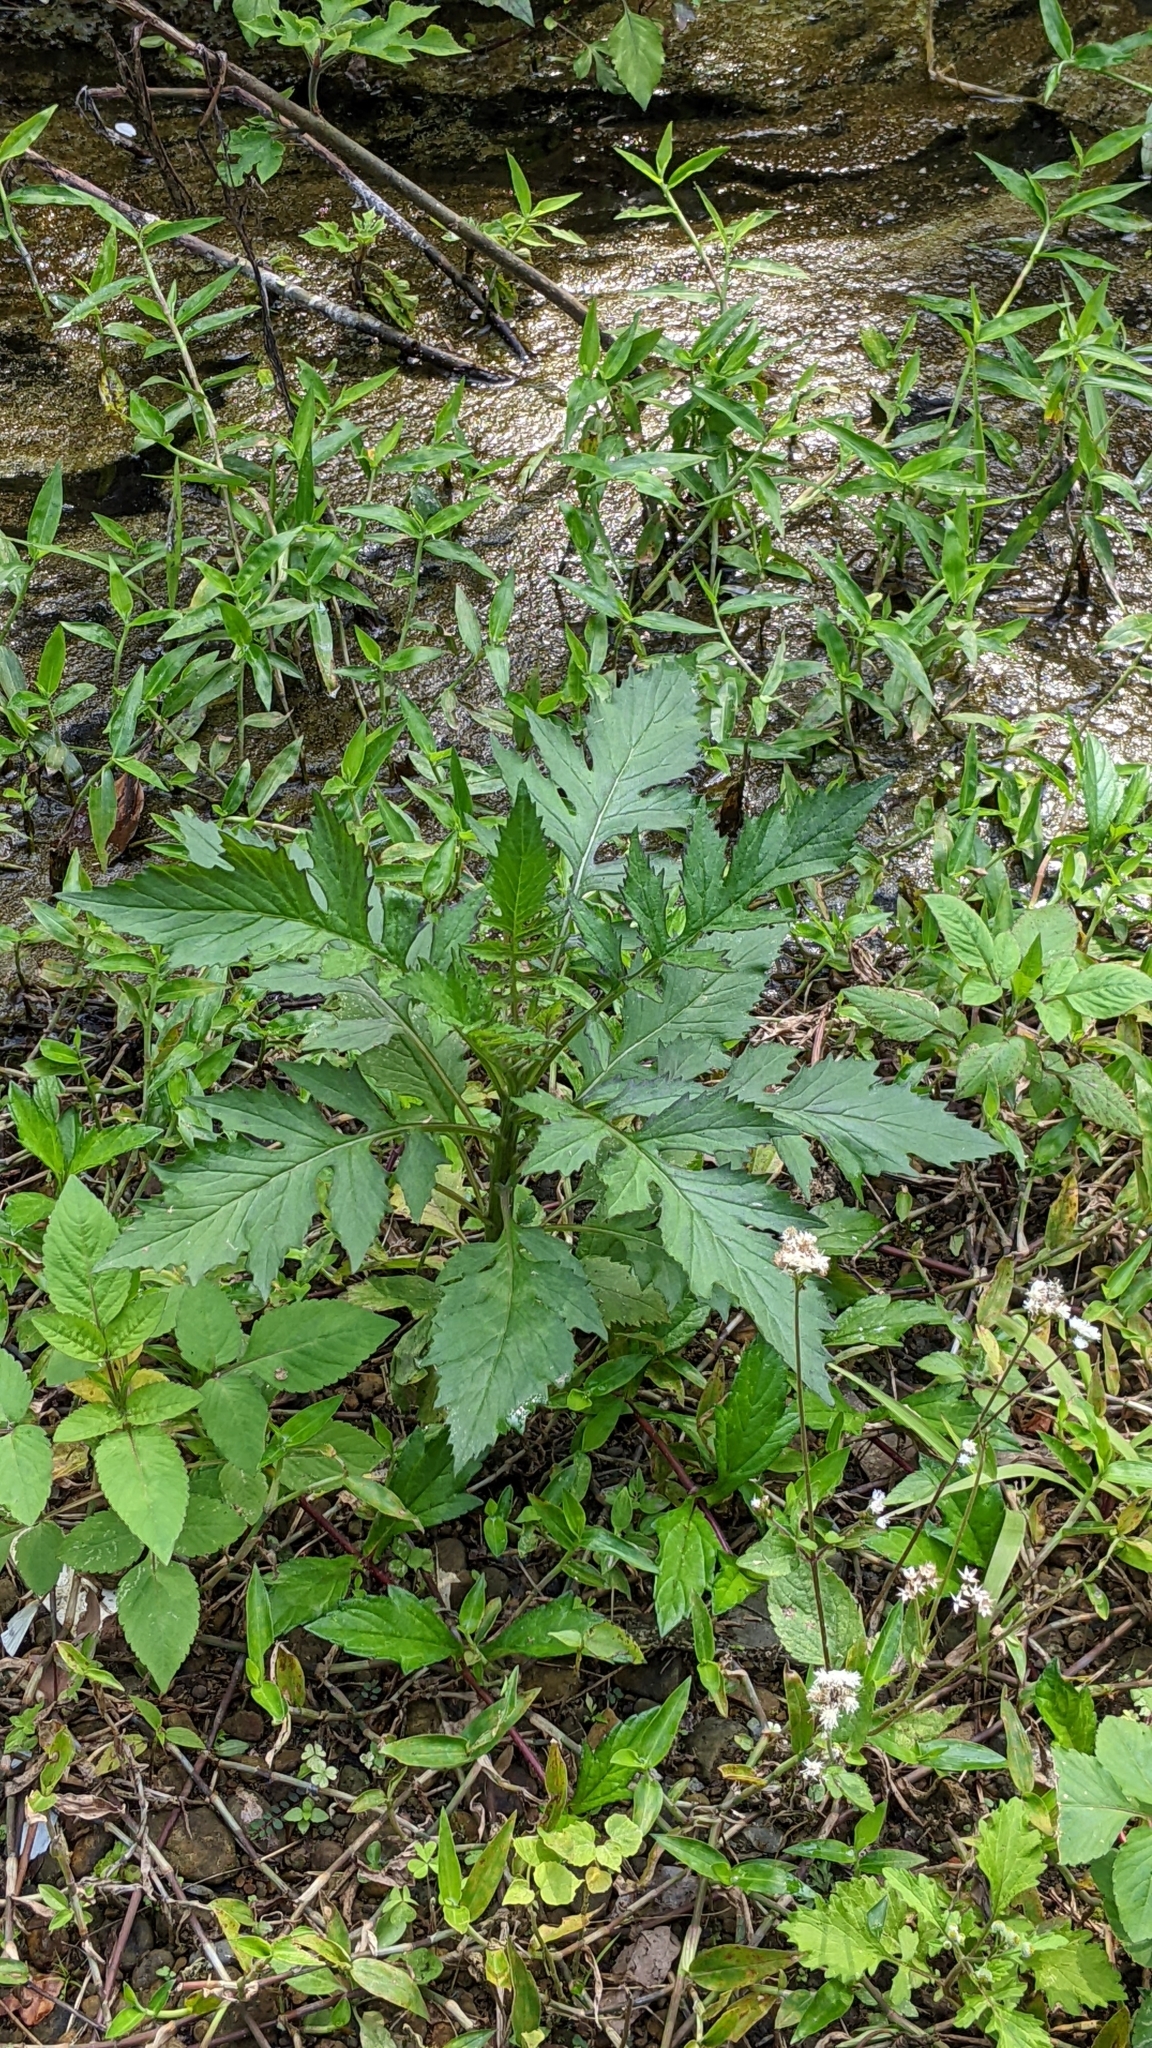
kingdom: Plantae
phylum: Tracheophyta
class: Magnoliopsida
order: Asterales
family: Asteraceae
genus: Erechtites
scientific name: Erechtites valerianifolius
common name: Tropical burnweed
